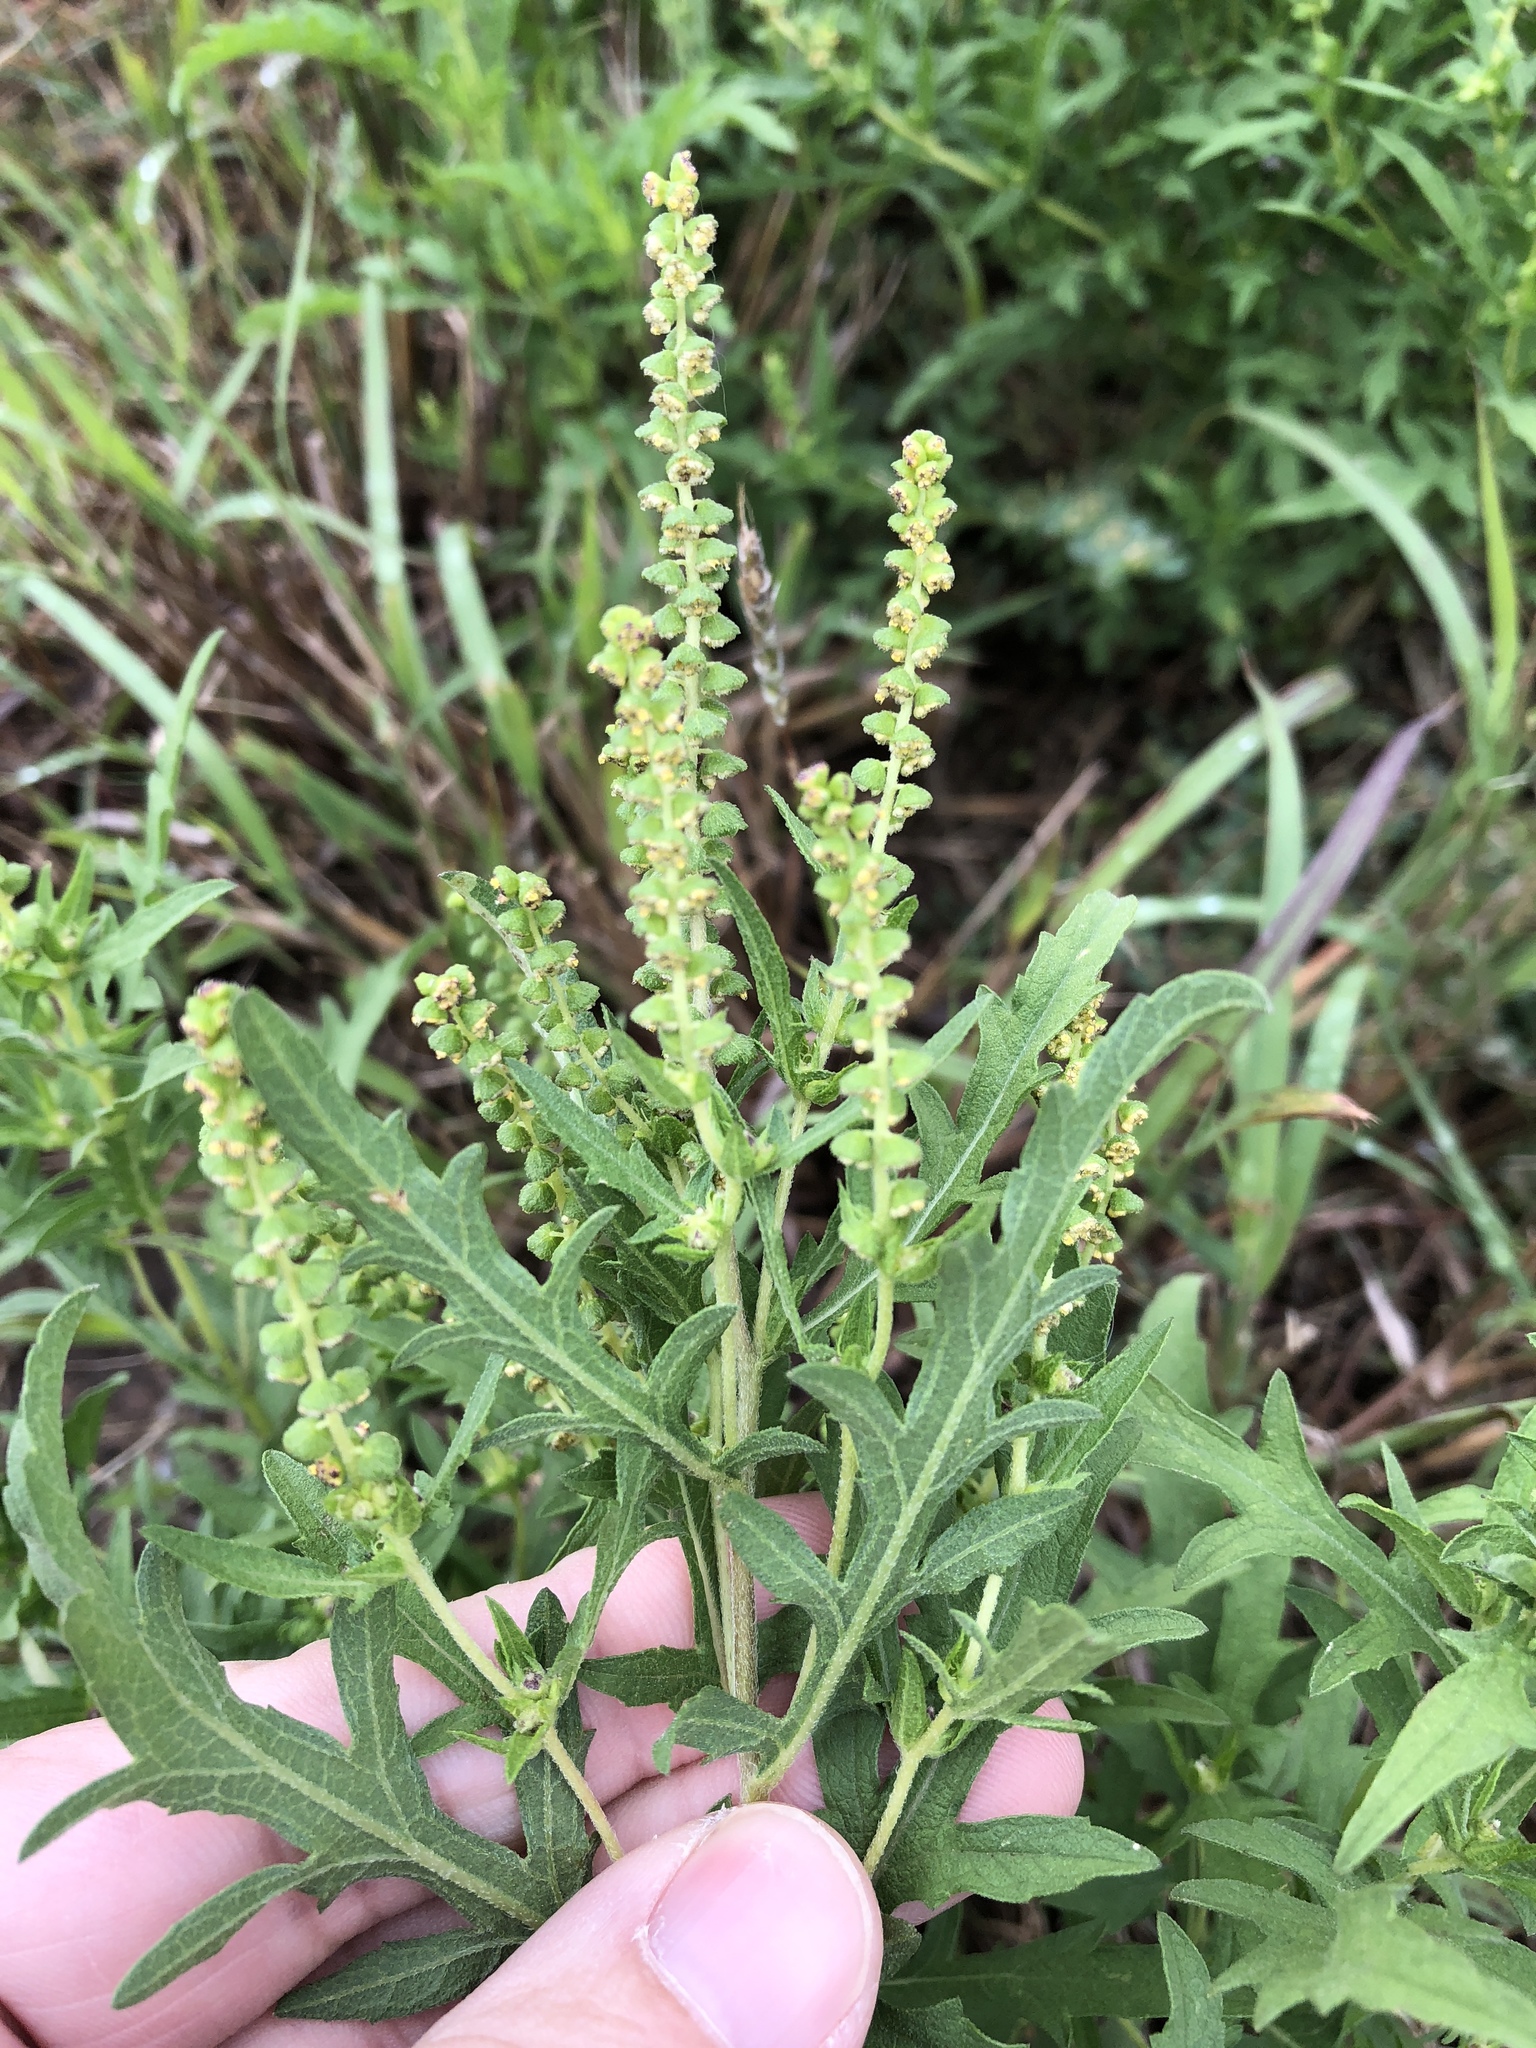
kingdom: Plantae
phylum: Tracheophyta
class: Magnoliopsida
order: Asterales
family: Asteraceae
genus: Ambrosia
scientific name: Ambrosia psilostachya
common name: Perennial ragweed
